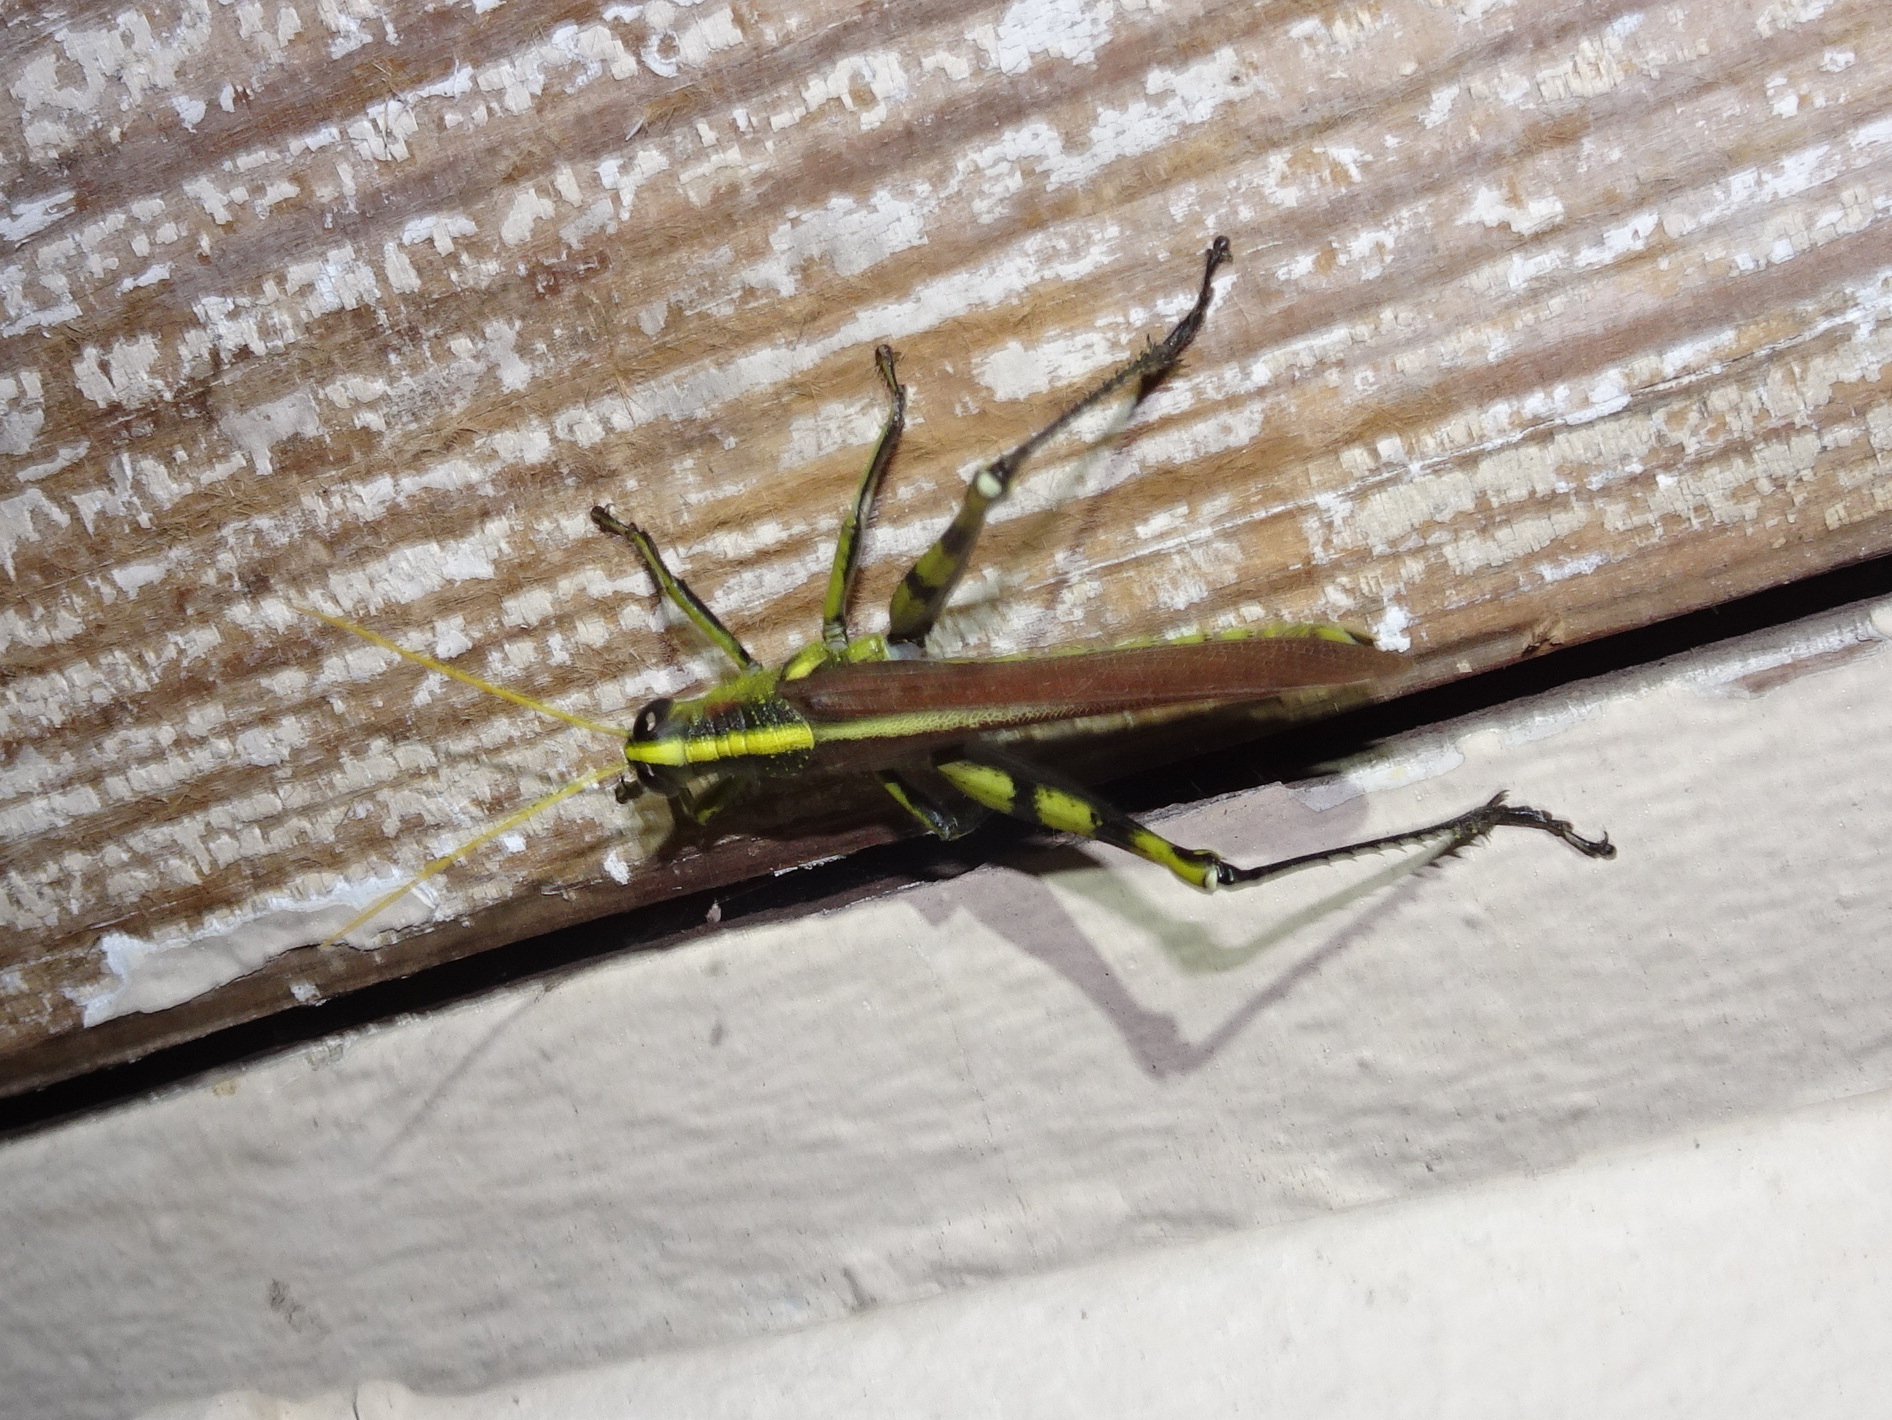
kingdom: Animalia
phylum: Arthropoda
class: Insecta
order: Orthoptera
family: Acrididae
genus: Schistocerca
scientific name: Schistocerca obscura
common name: Obscure bird grasshopper
